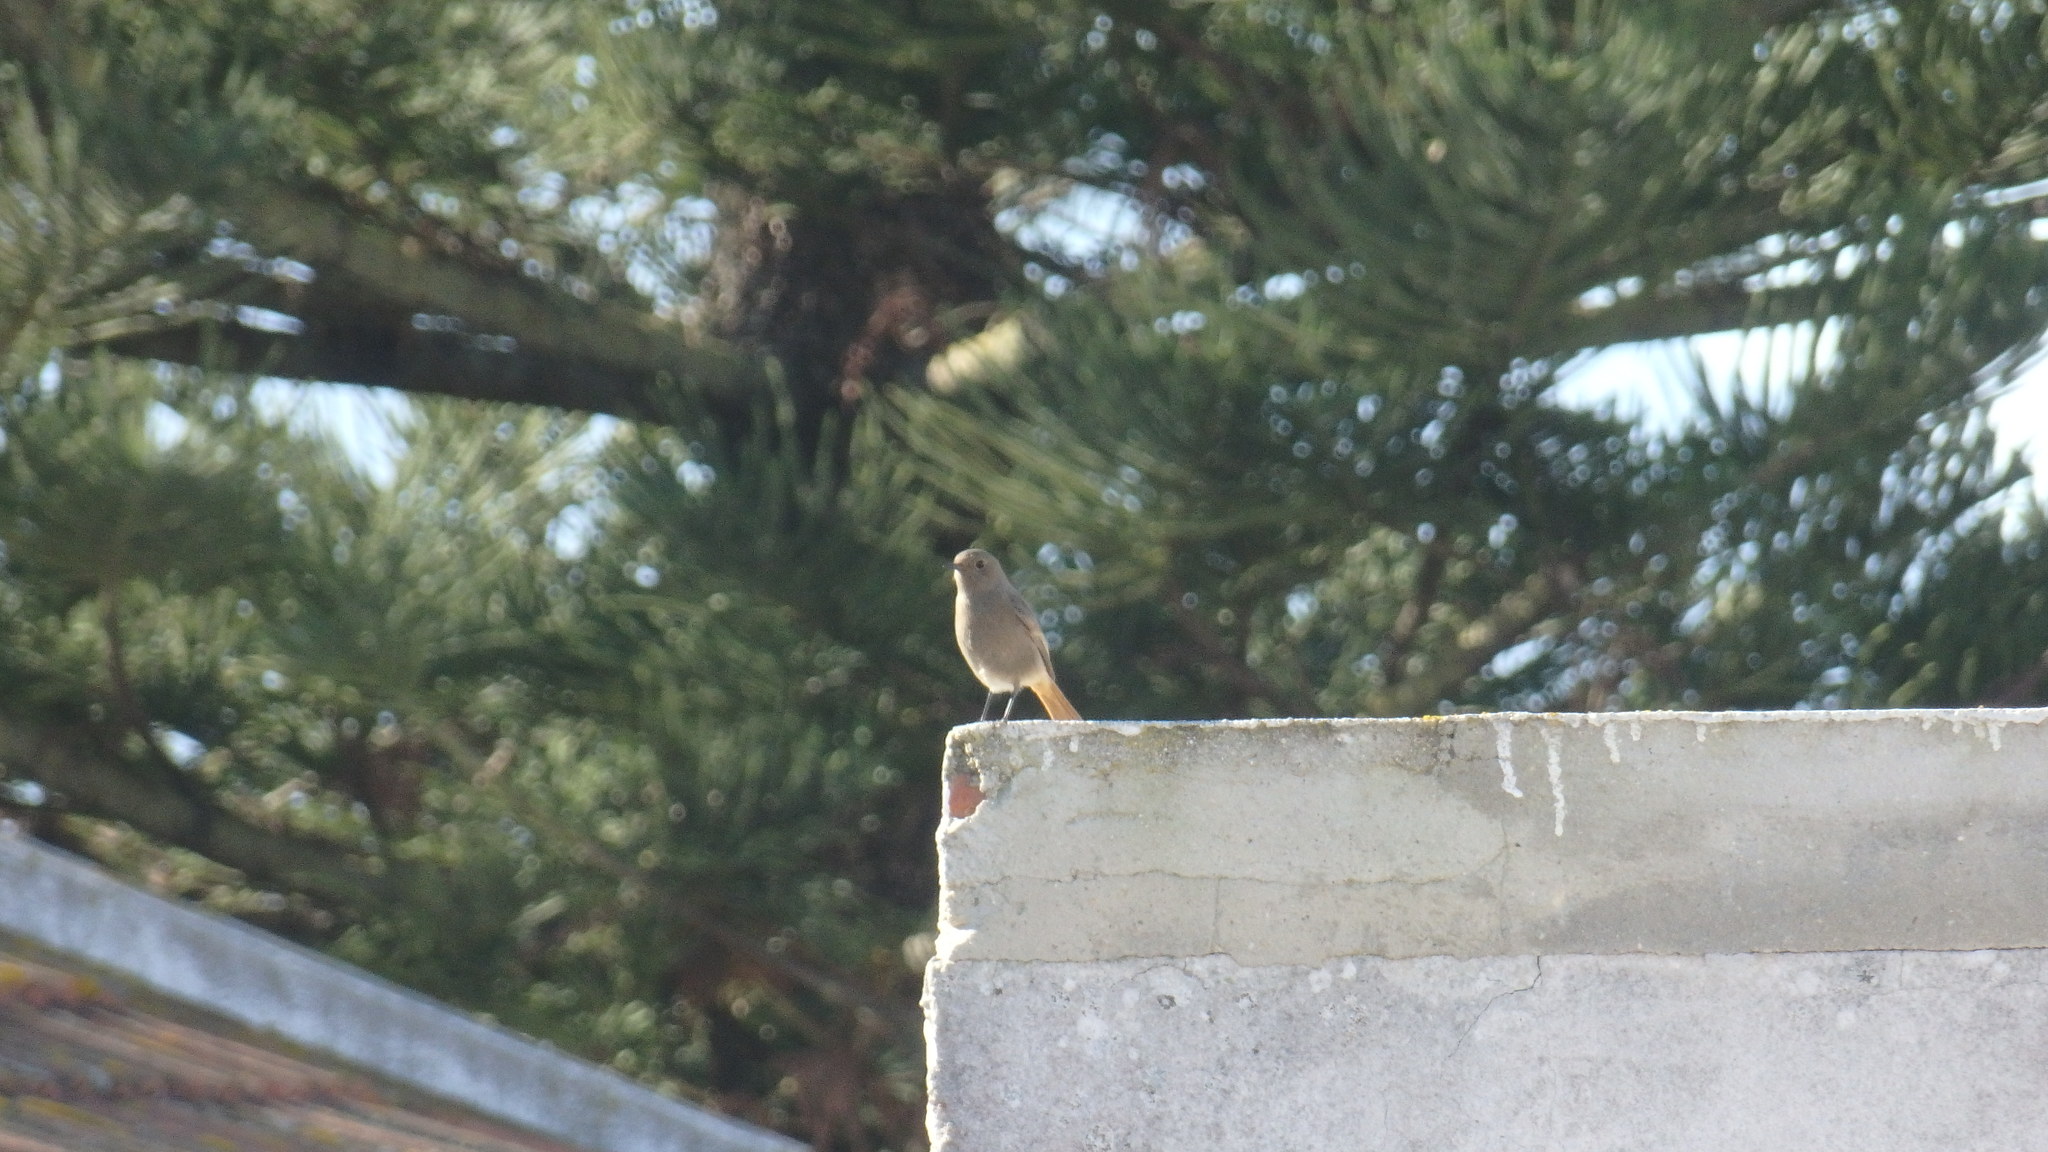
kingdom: Animalia
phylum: Chordata
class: Aves
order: Passeriformes
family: Muscicapidae
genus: Phoenicurus
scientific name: Phoenicurus ochruros
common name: Black redstart
